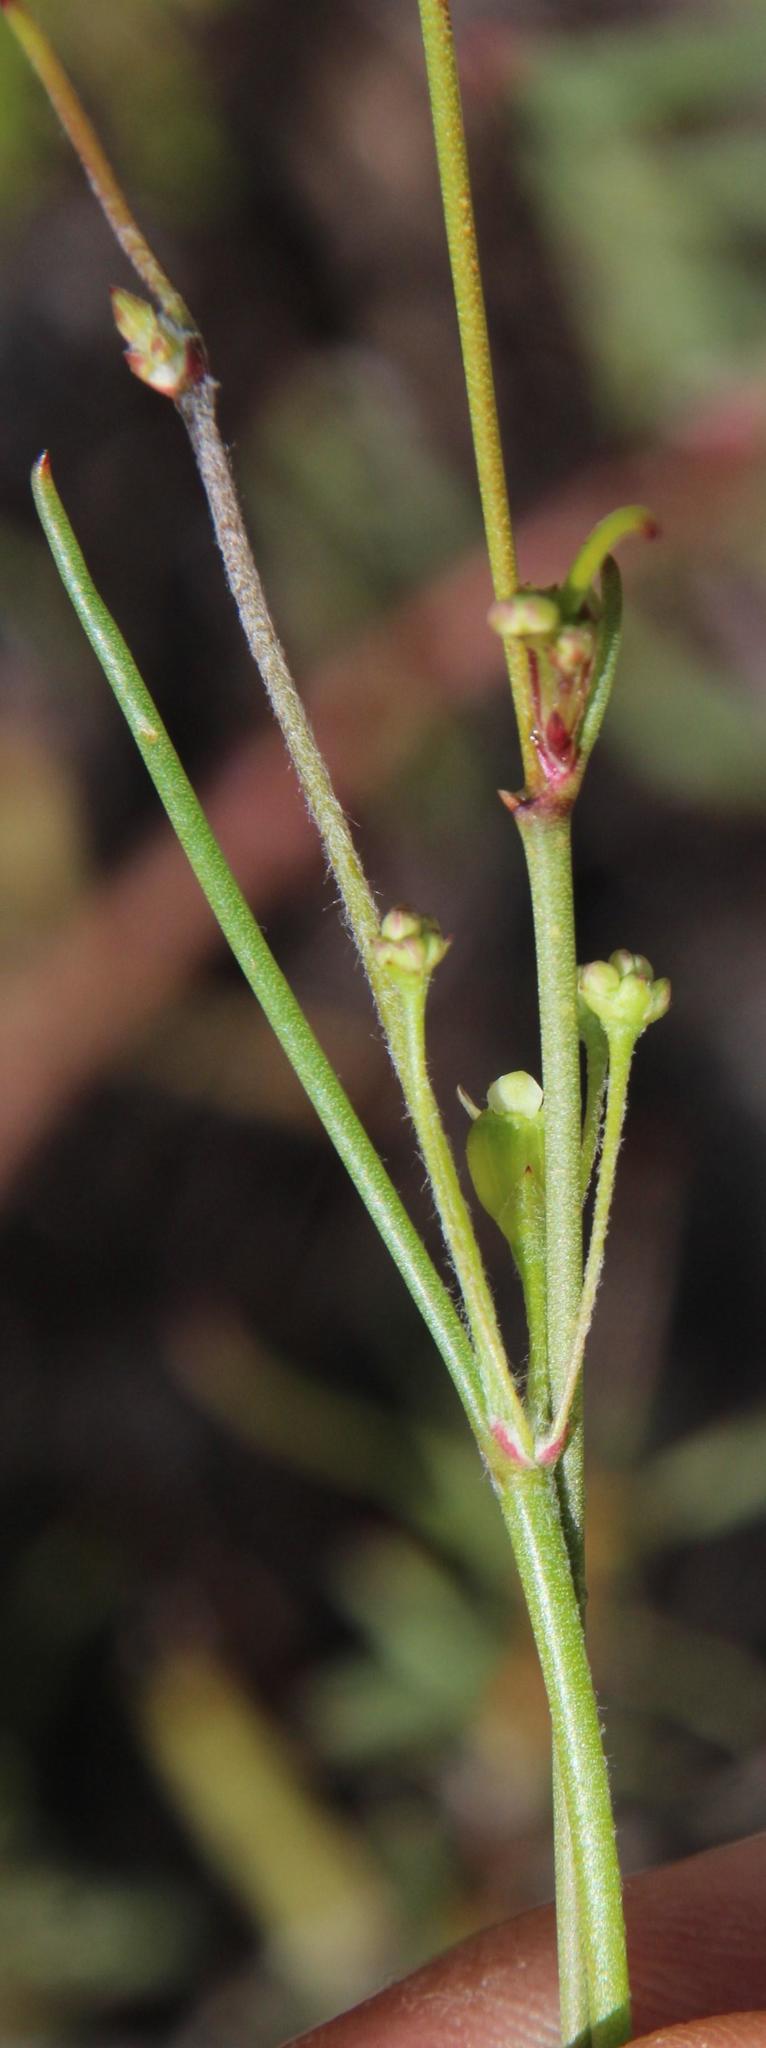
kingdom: Plantae
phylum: Tracheophyta
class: Magnoliopsida
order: Apiales
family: Apiaceae
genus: Centella
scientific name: Centella macrocarpa
